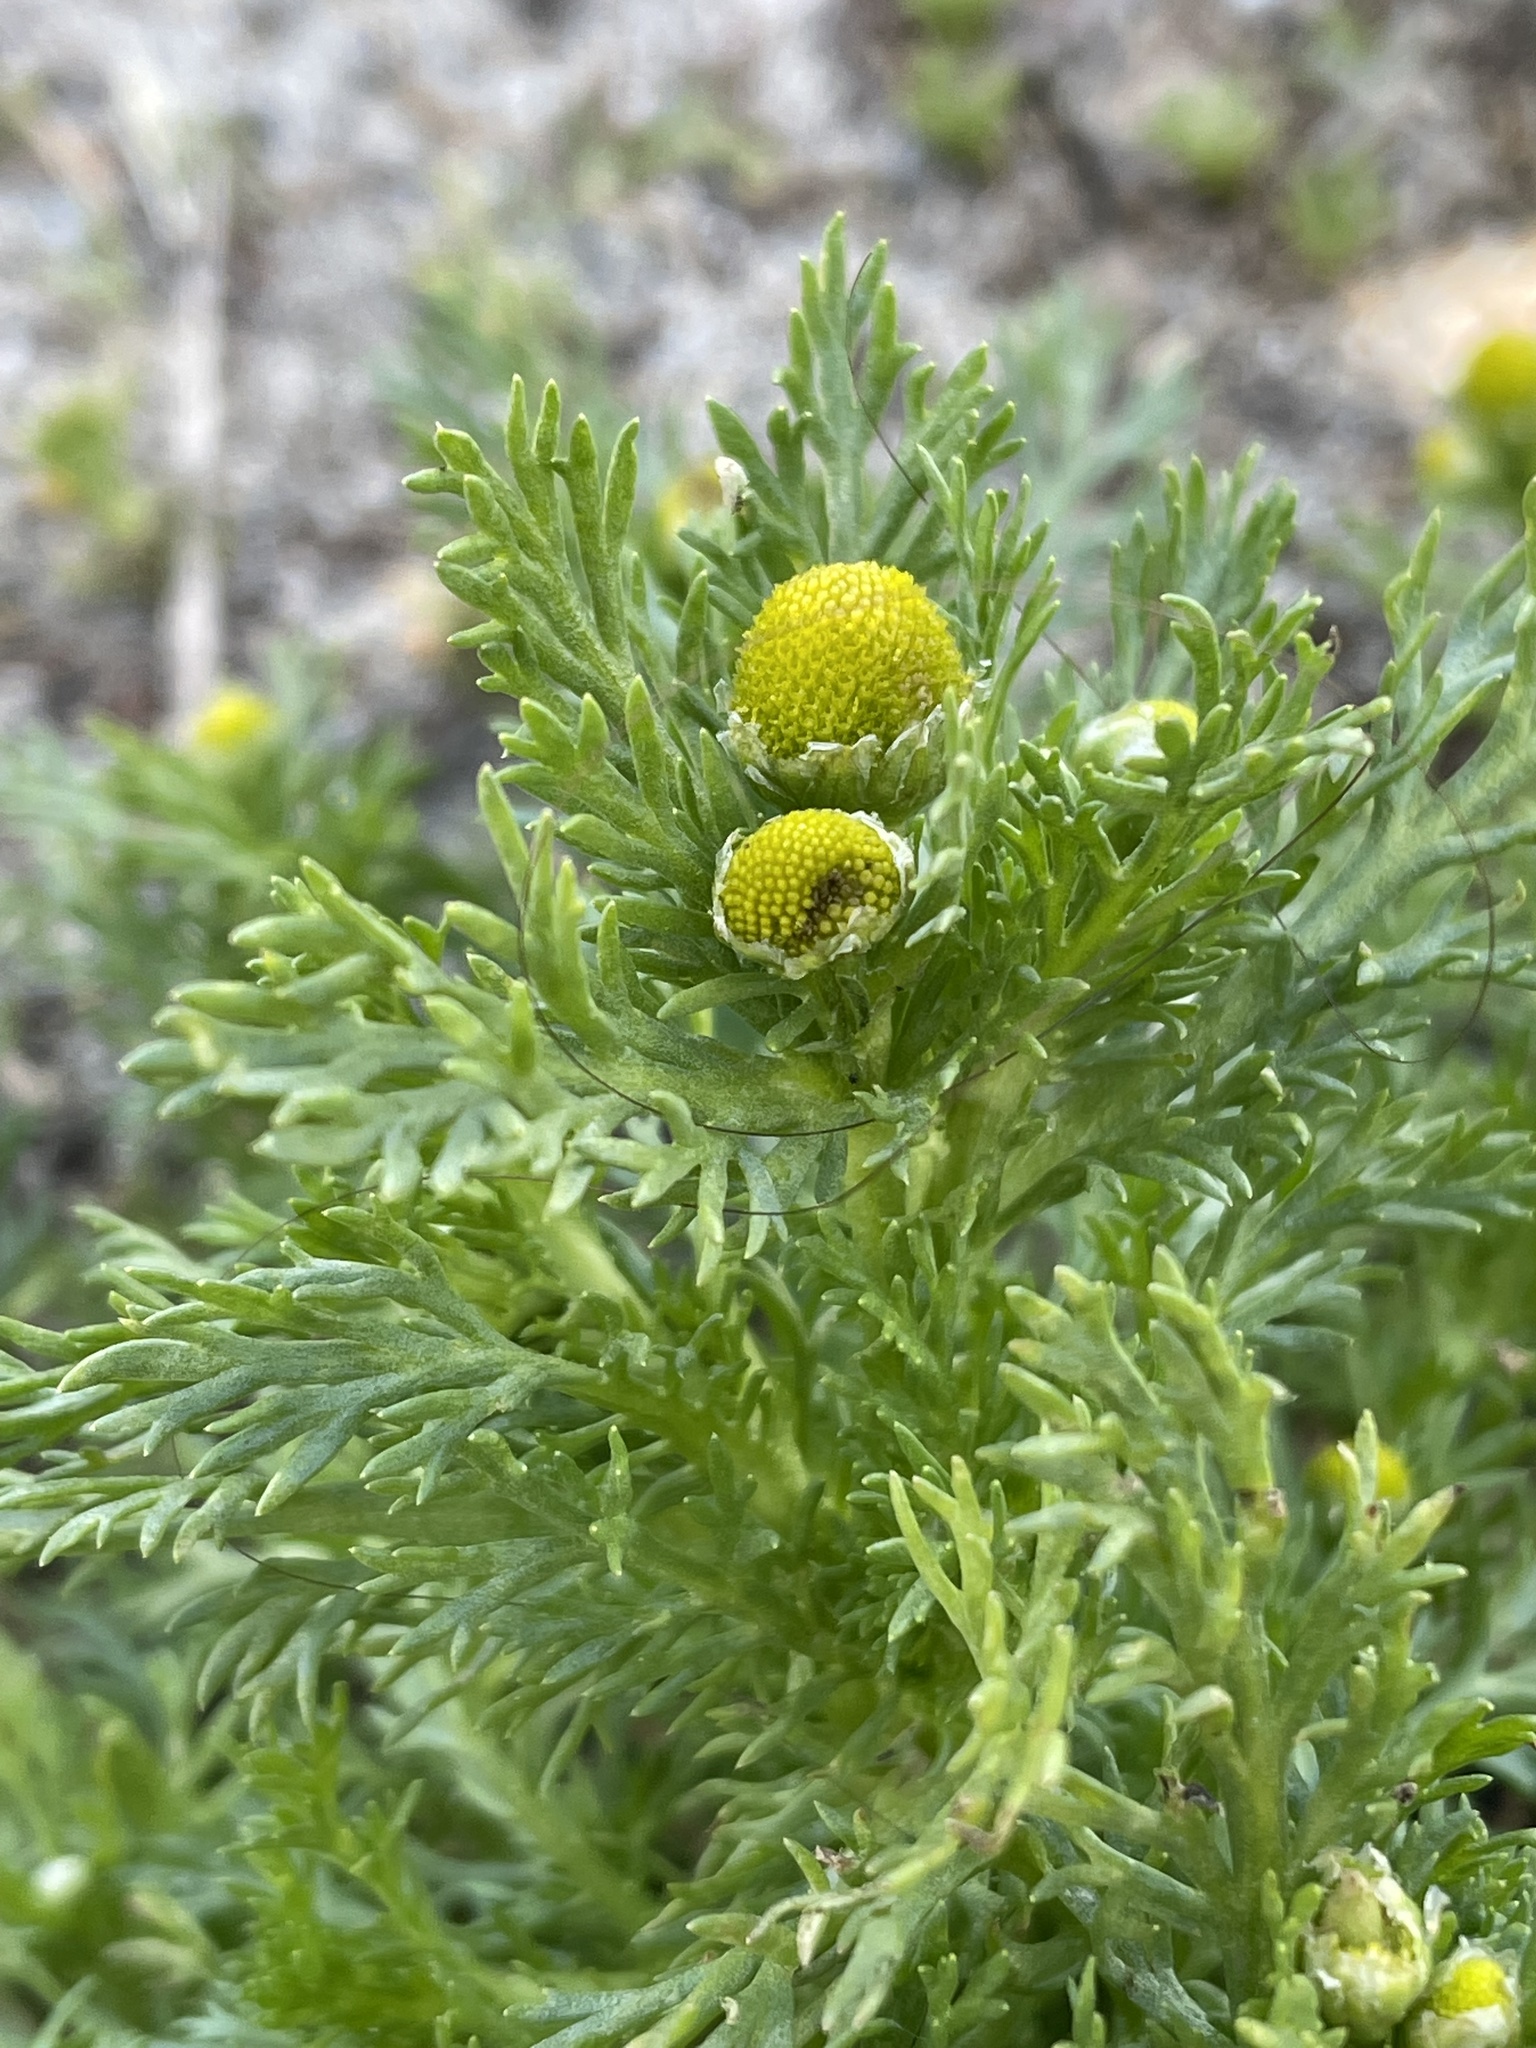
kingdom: Plantae
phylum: Tracheophyta
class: Magnoliopsida
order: Asterales
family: Asteraceae
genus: Matricaria
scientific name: Matricaria discoidea
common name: Disc mayweed
